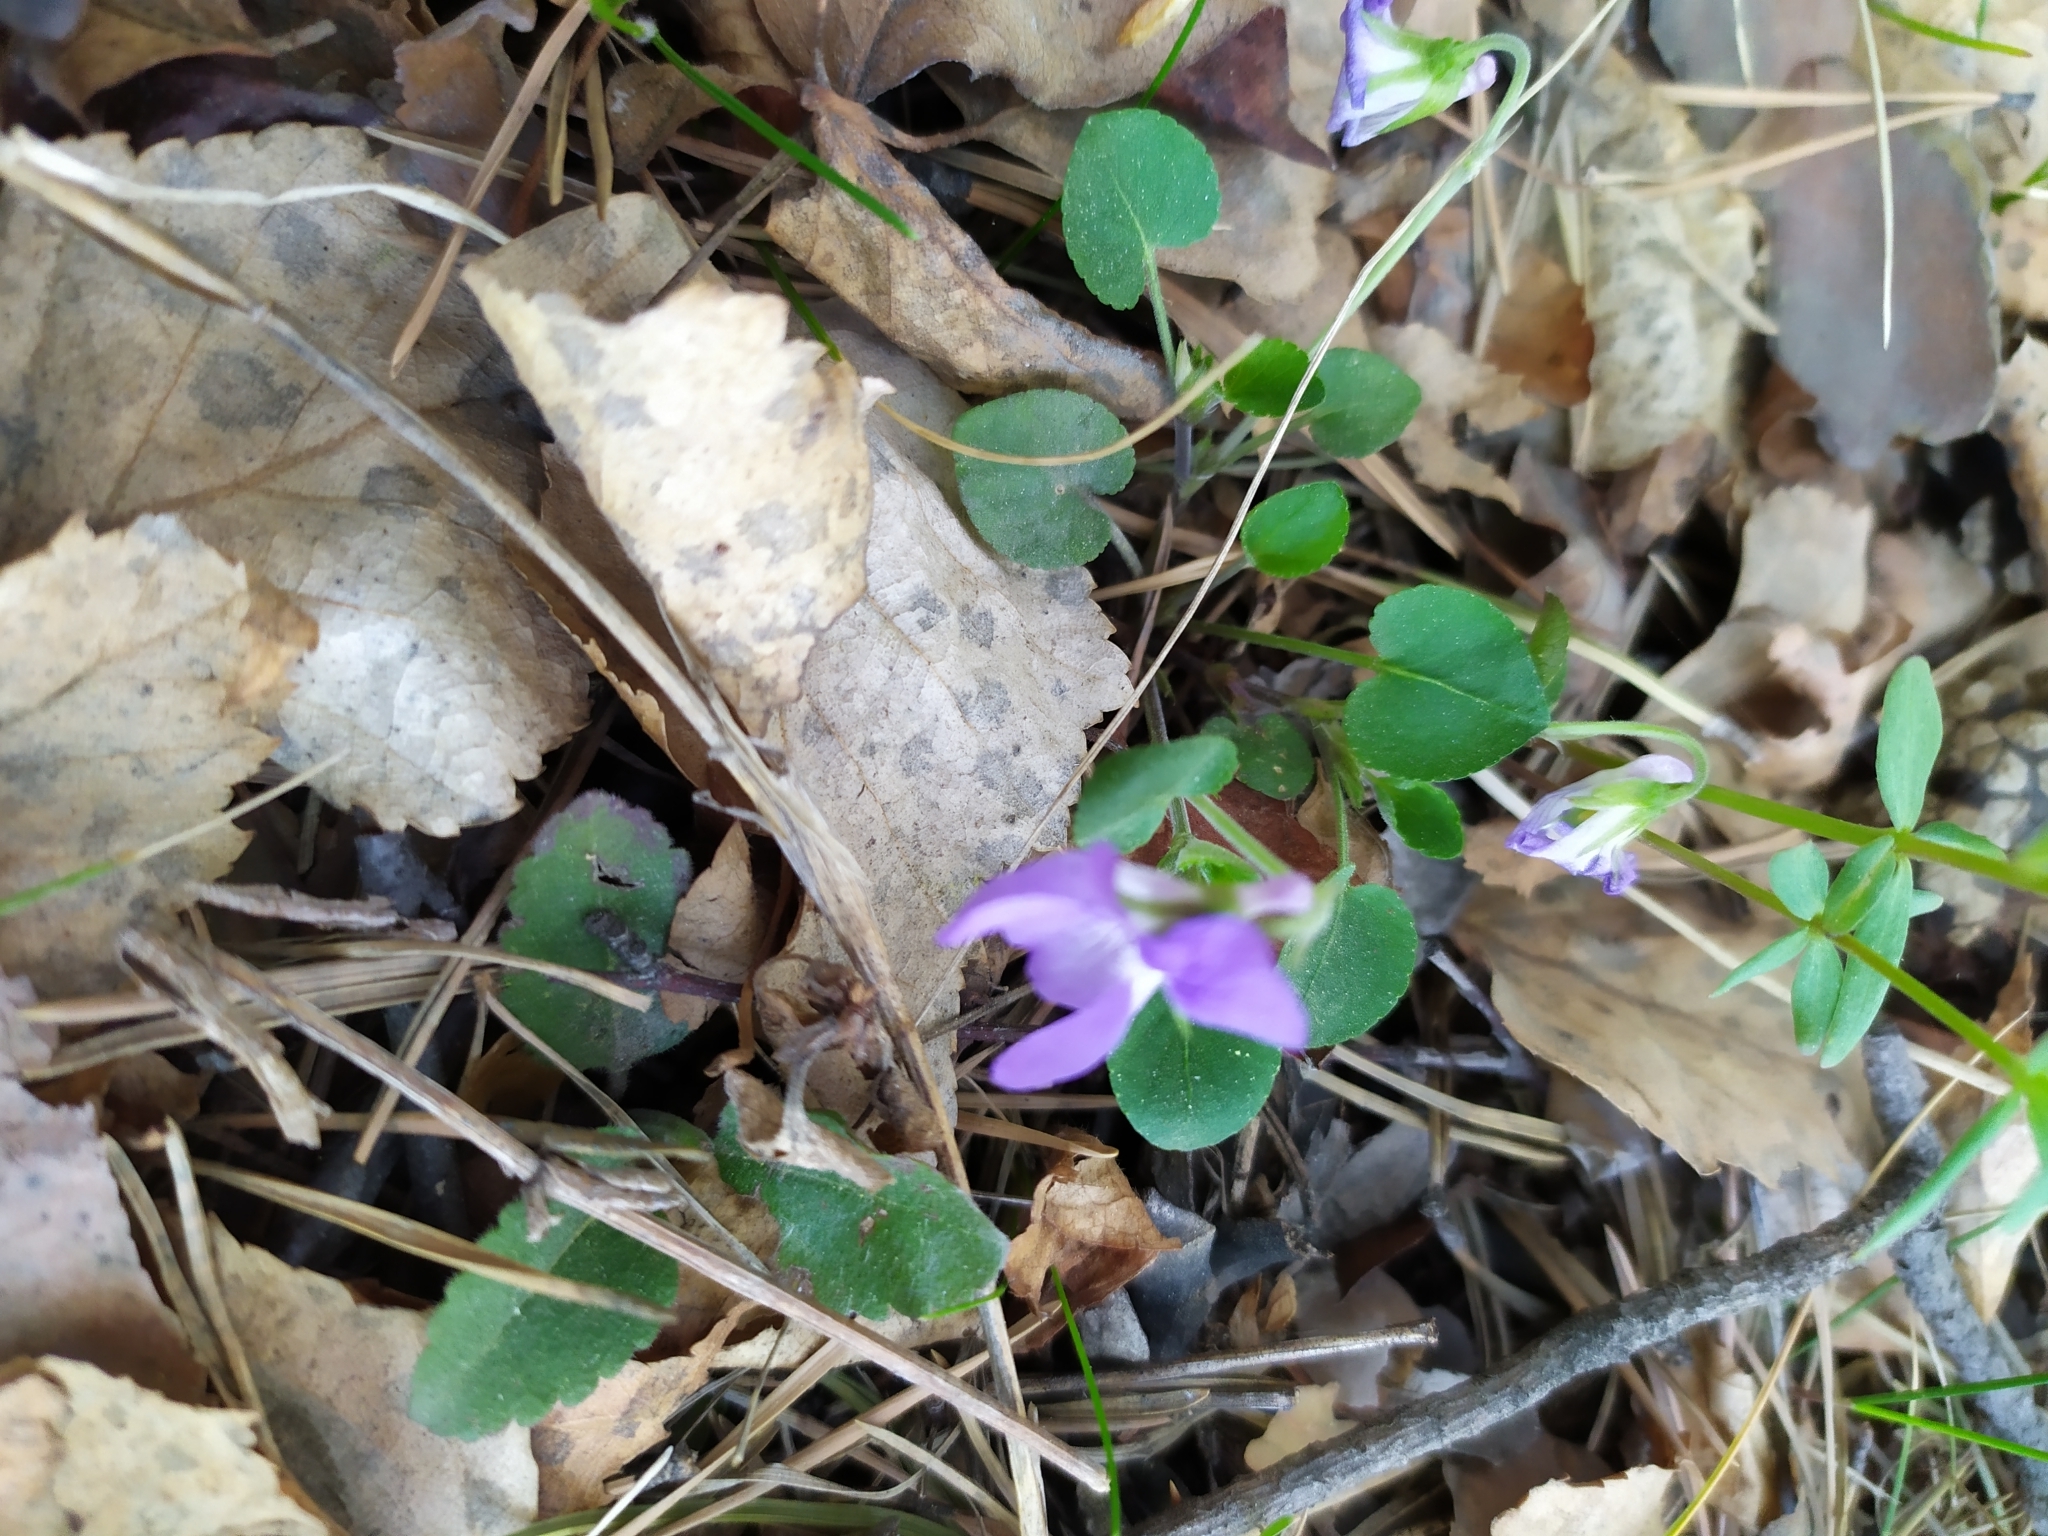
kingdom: Plantae
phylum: Tracheophyta
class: Magnoliopsida
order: Malpighiales
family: Violaceae
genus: Viola
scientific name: Viola rupestris
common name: Teesdale violet
